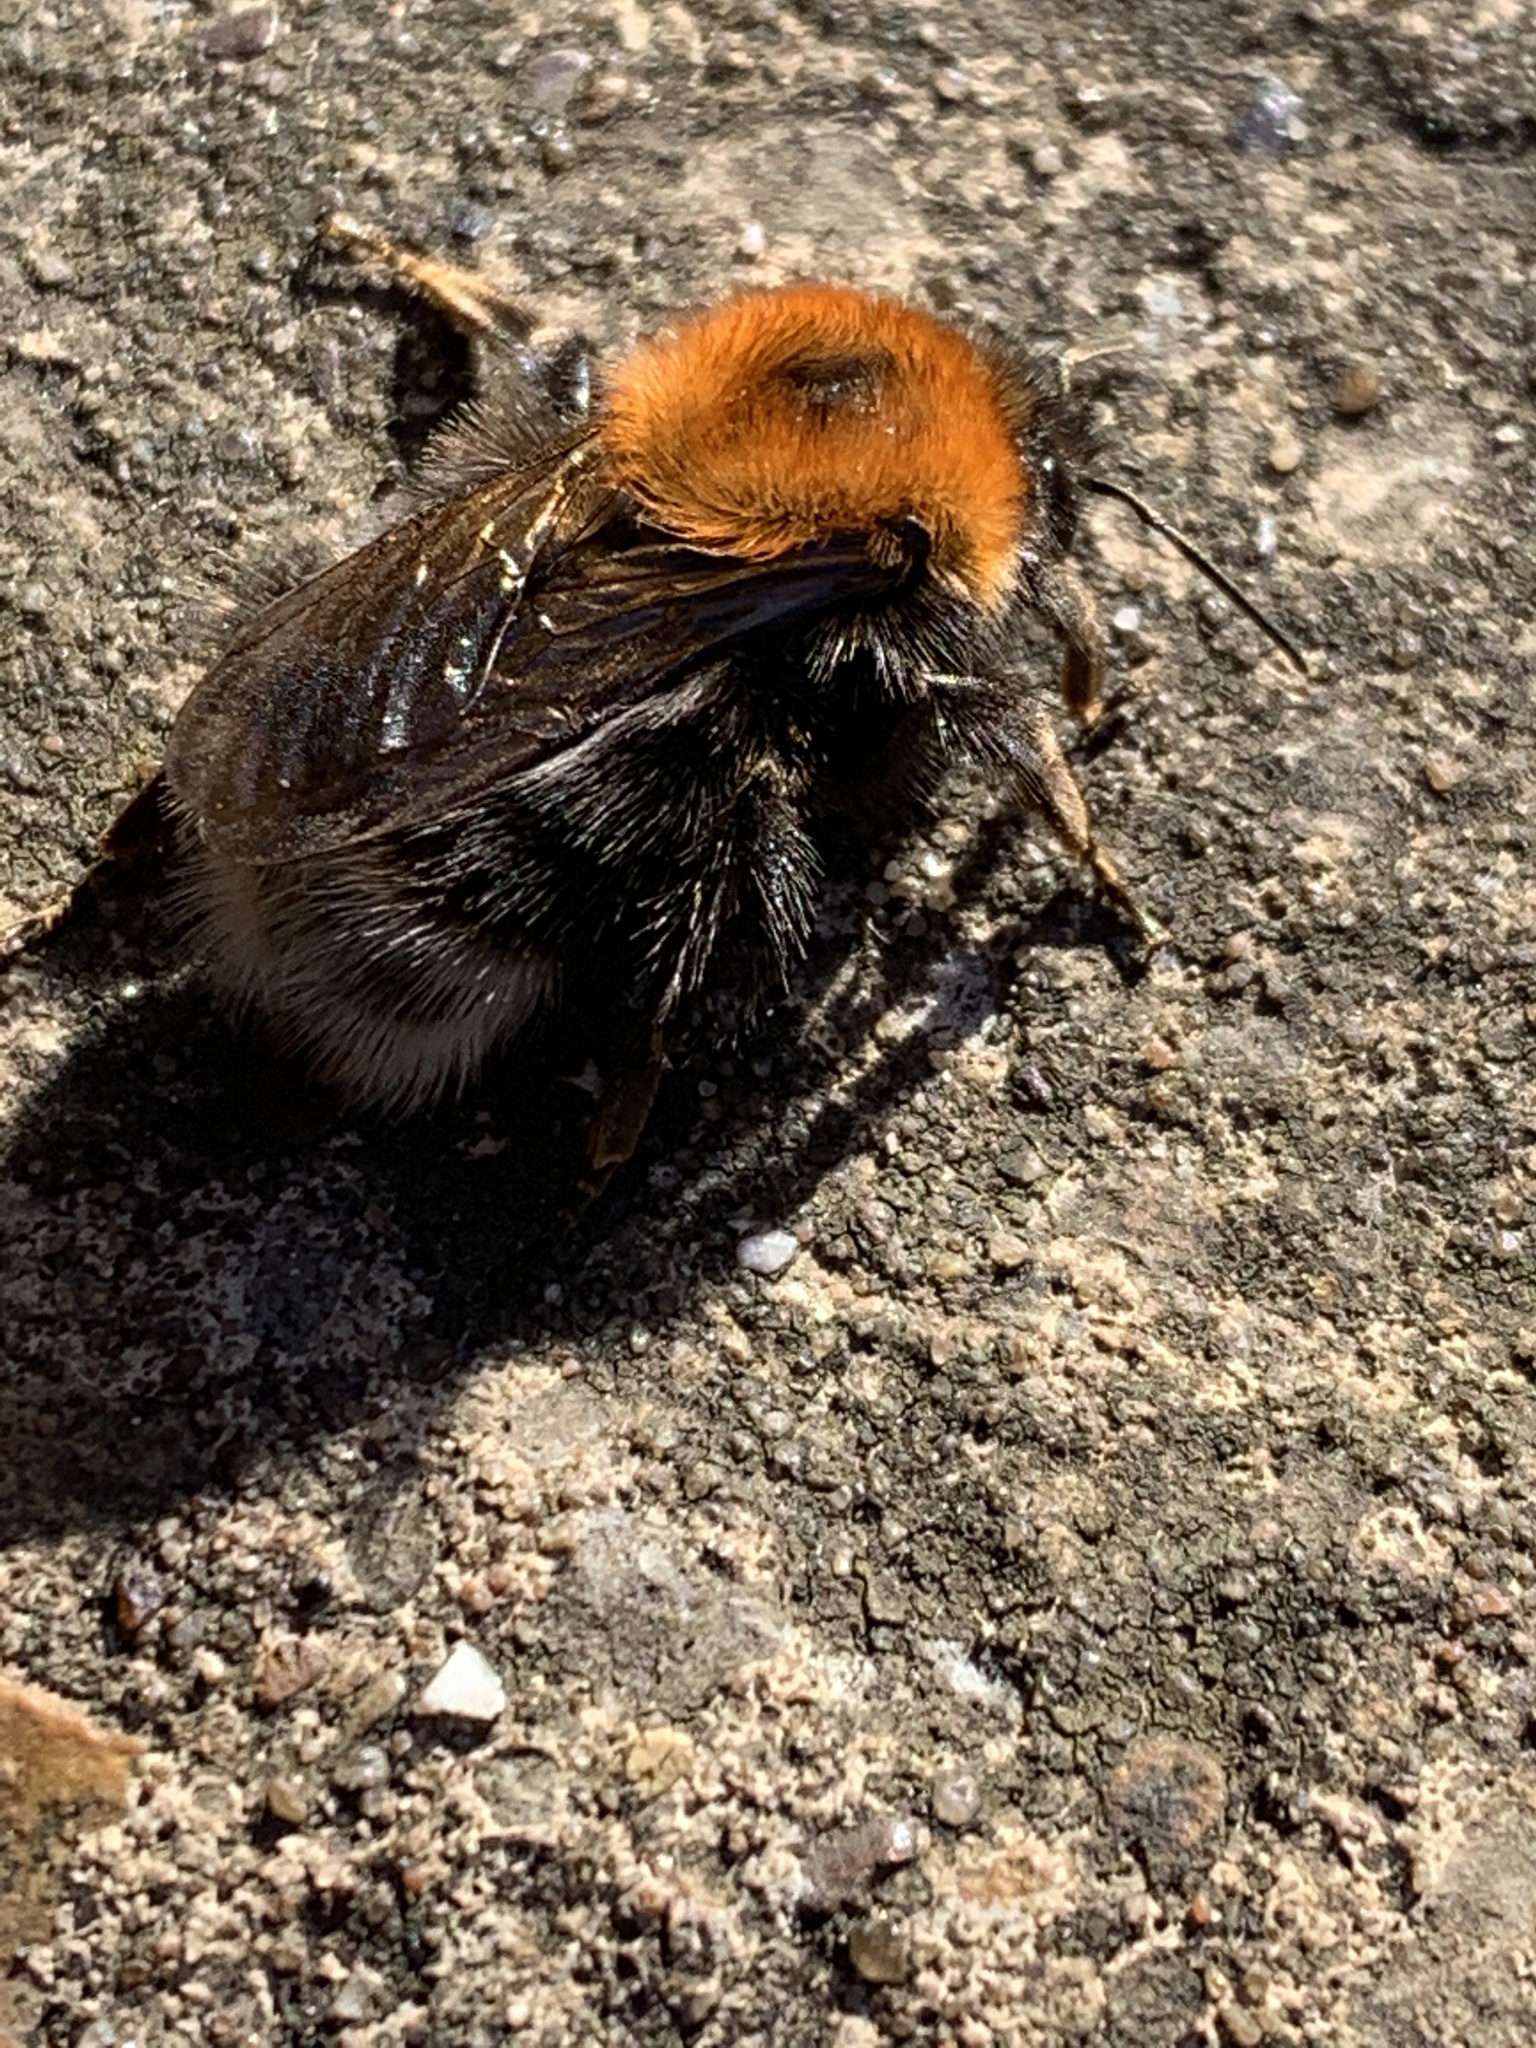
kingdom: Animalia
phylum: Arthropoda
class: Insecta
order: Hymenoptera
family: Apidae
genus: Bombus
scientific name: Bombus hypnorum
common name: New garden bumblebee
